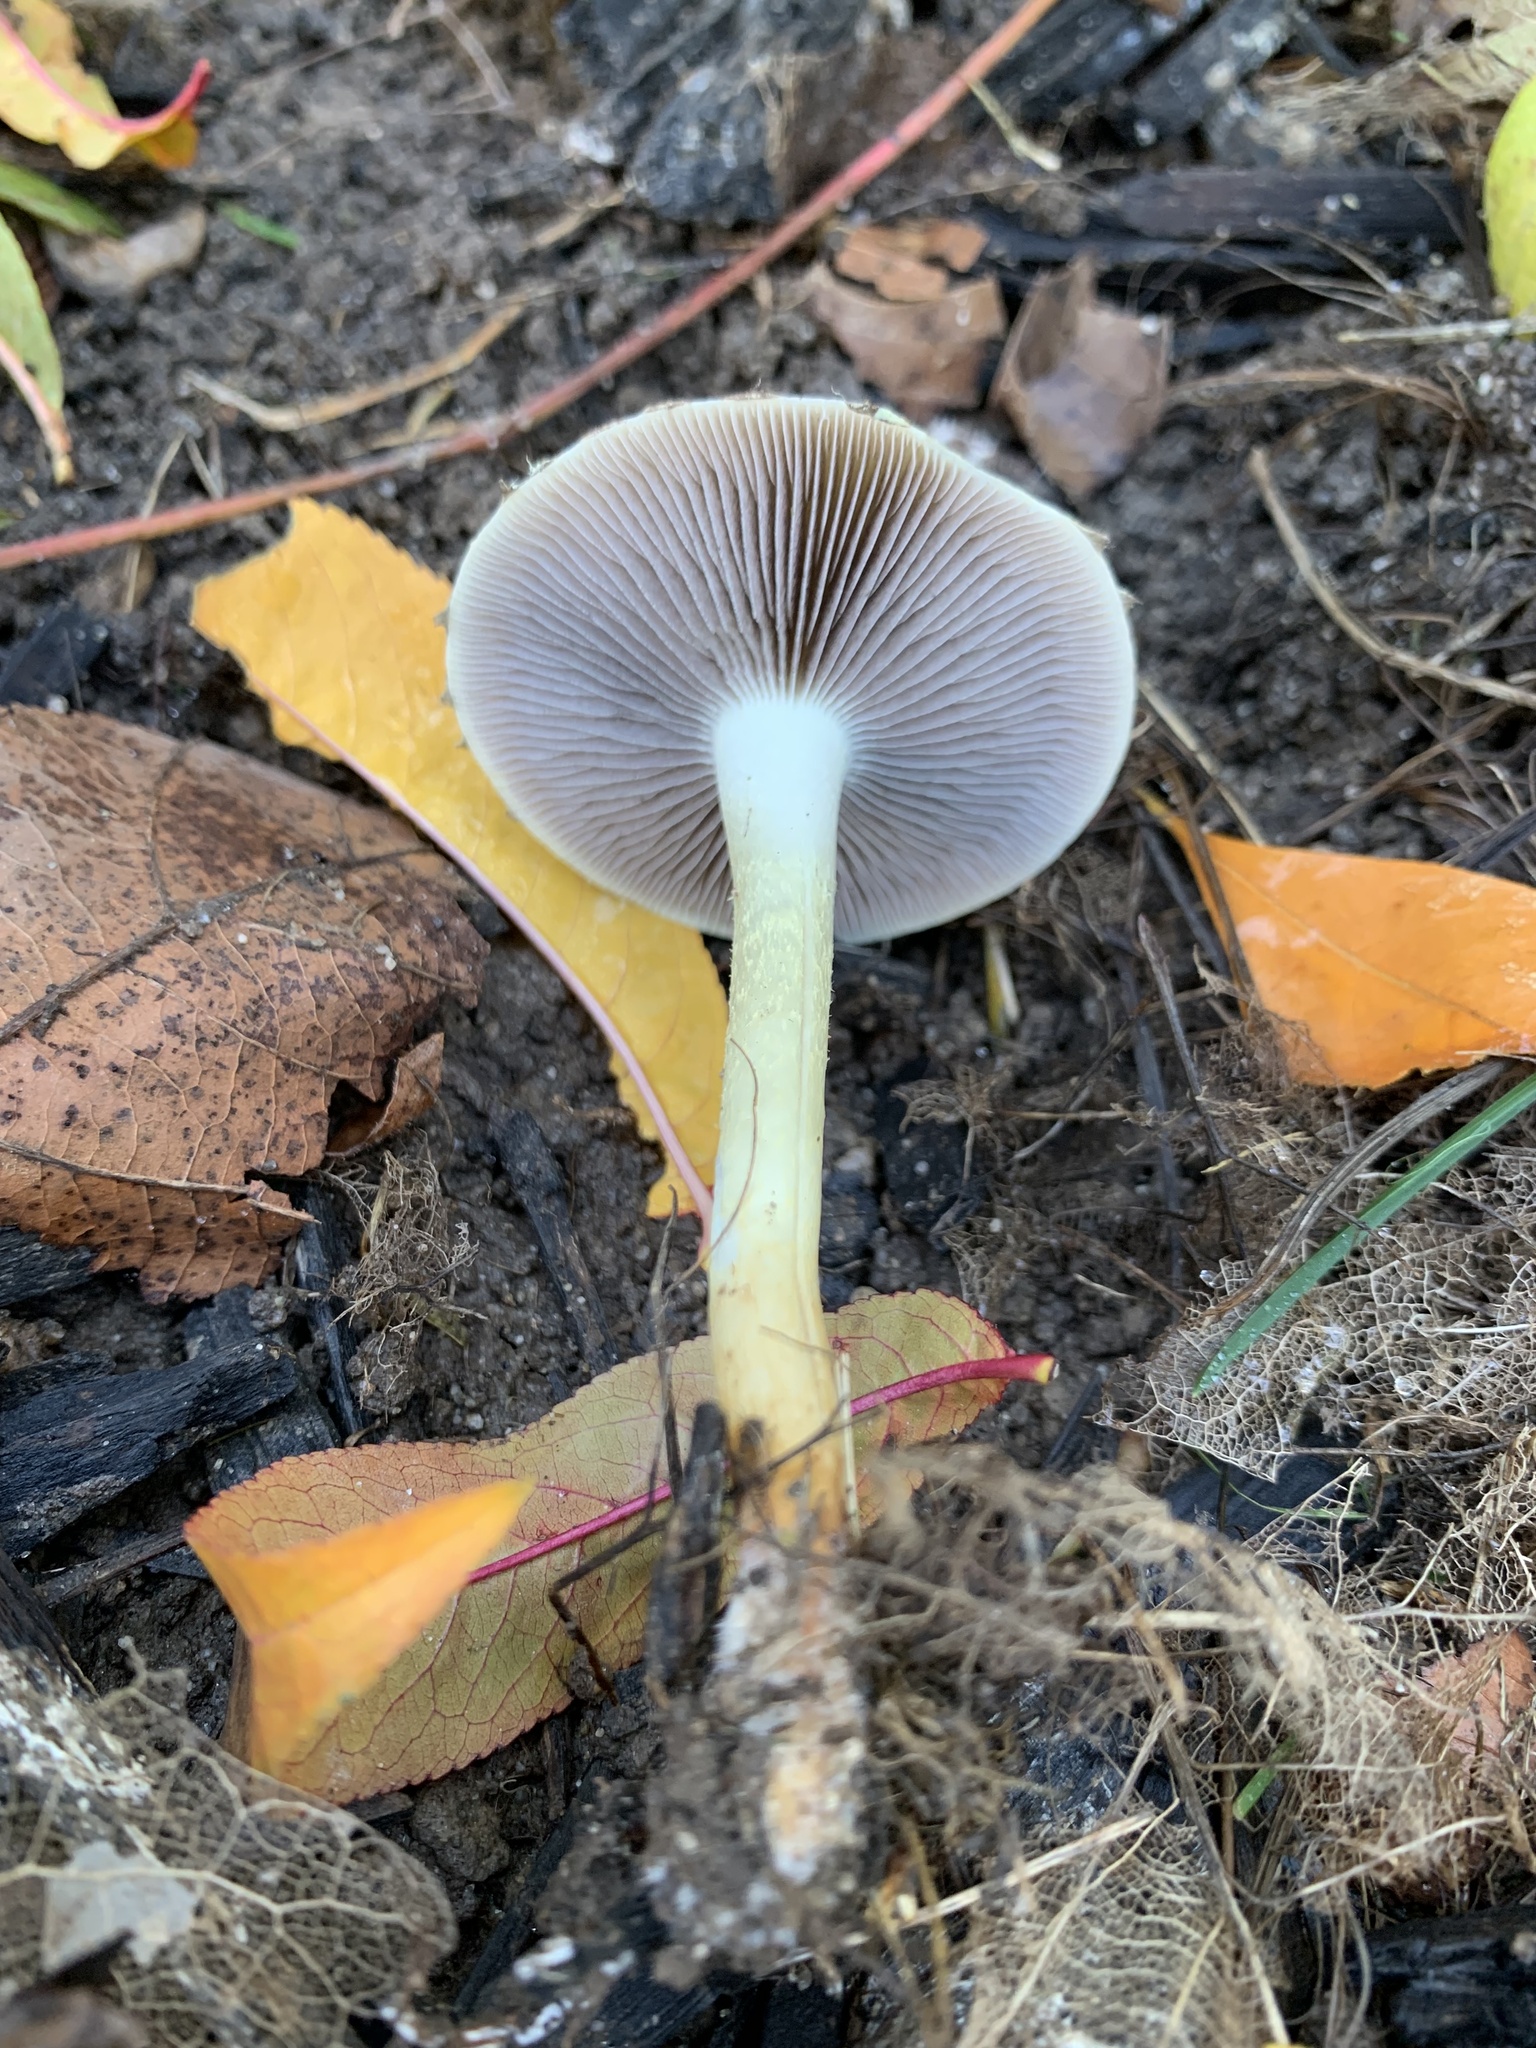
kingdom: Fungi
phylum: Basidiomycota
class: Agaricomycetes
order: Agaricales
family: Strophariaceae
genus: Leratiomyces
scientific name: Leratiomyces percevalii
